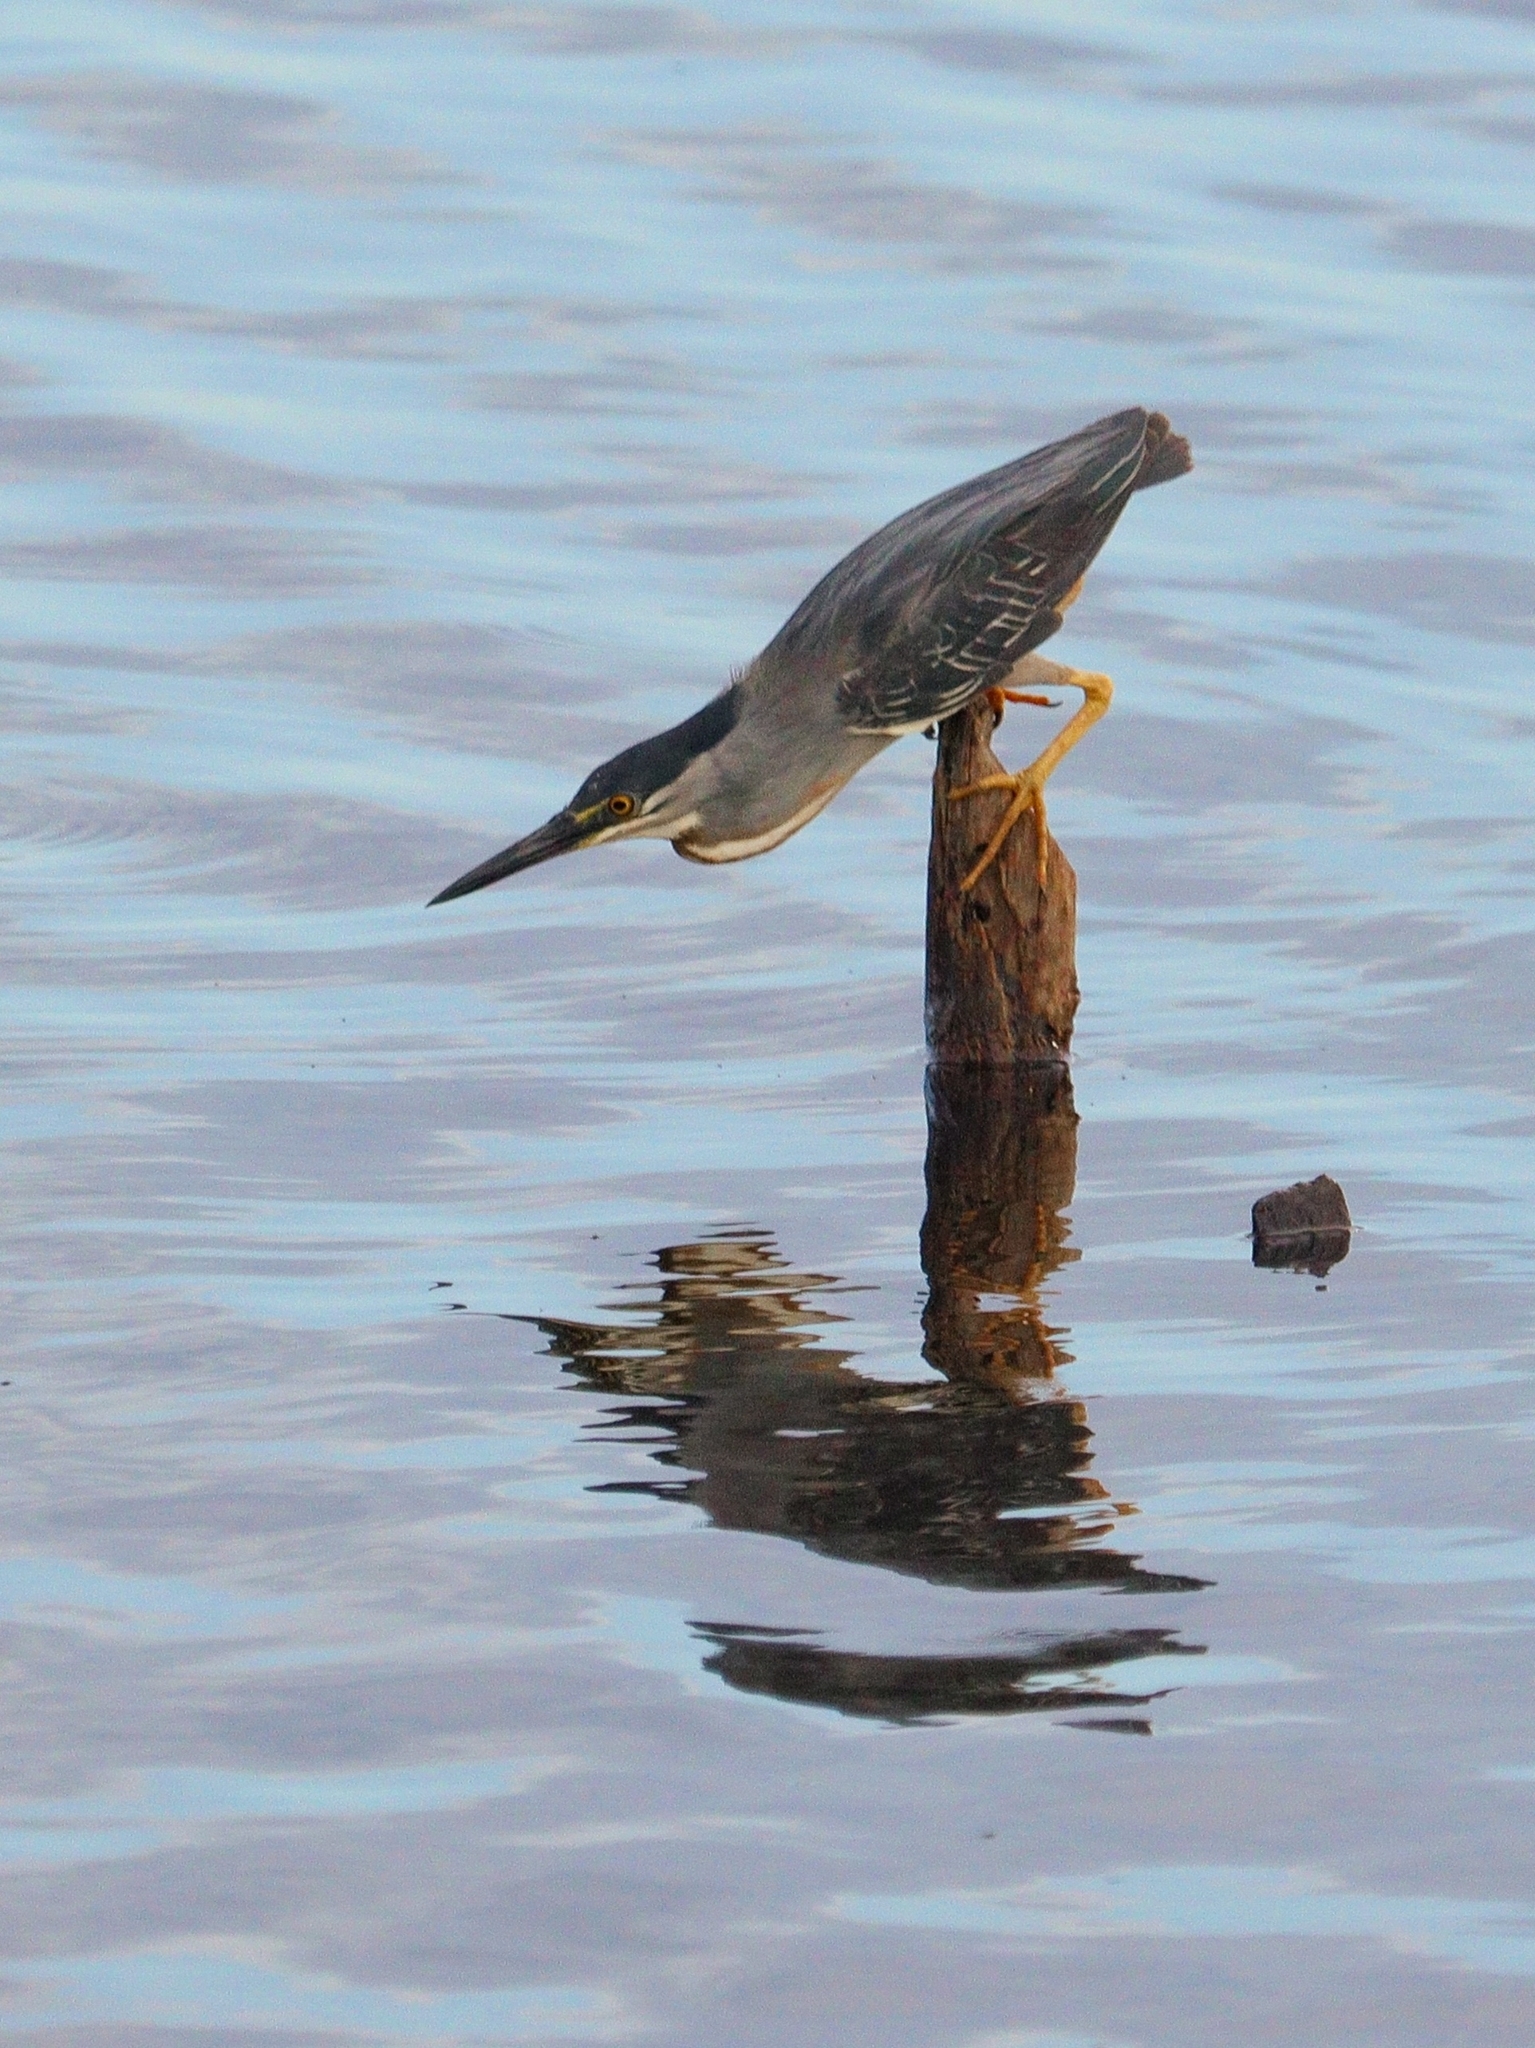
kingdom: Animalia
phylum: Chordata
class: Aves
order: Pelecaniformes
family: Ardeidae
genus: Butorides
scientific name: Butorides striata
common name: Striated heron
